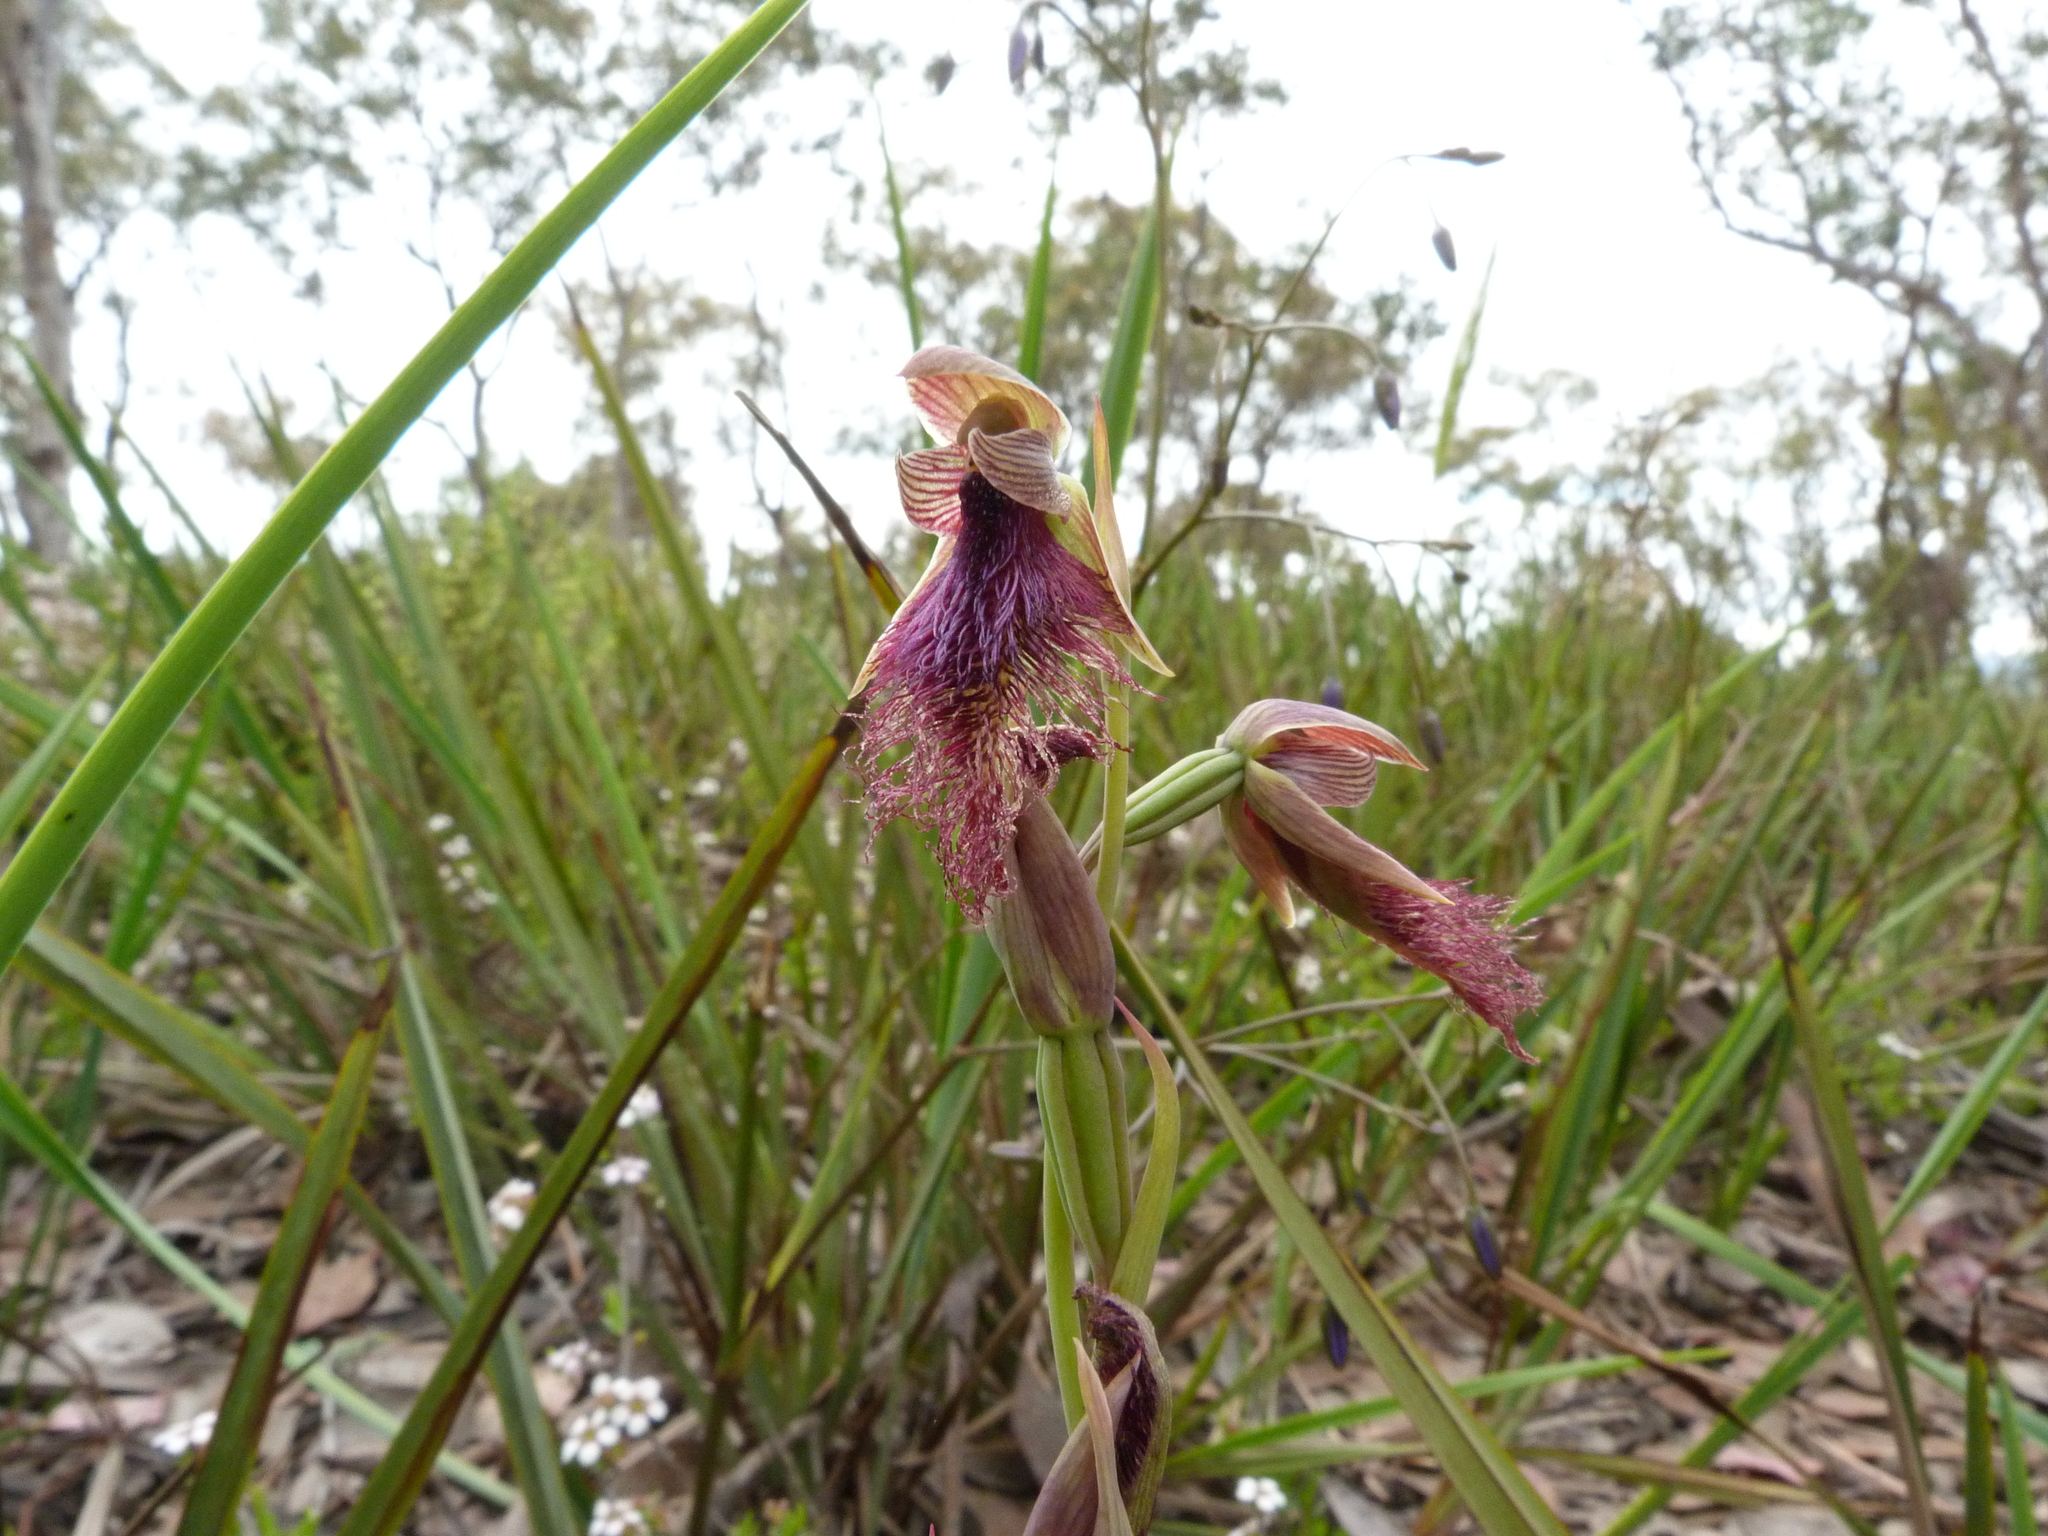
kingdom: Plantae
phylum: Tracheophyta
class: Liliopsida
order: Asparagales
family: Orchidaceae
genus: Calochilus
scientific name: Calochilus robertsonii
